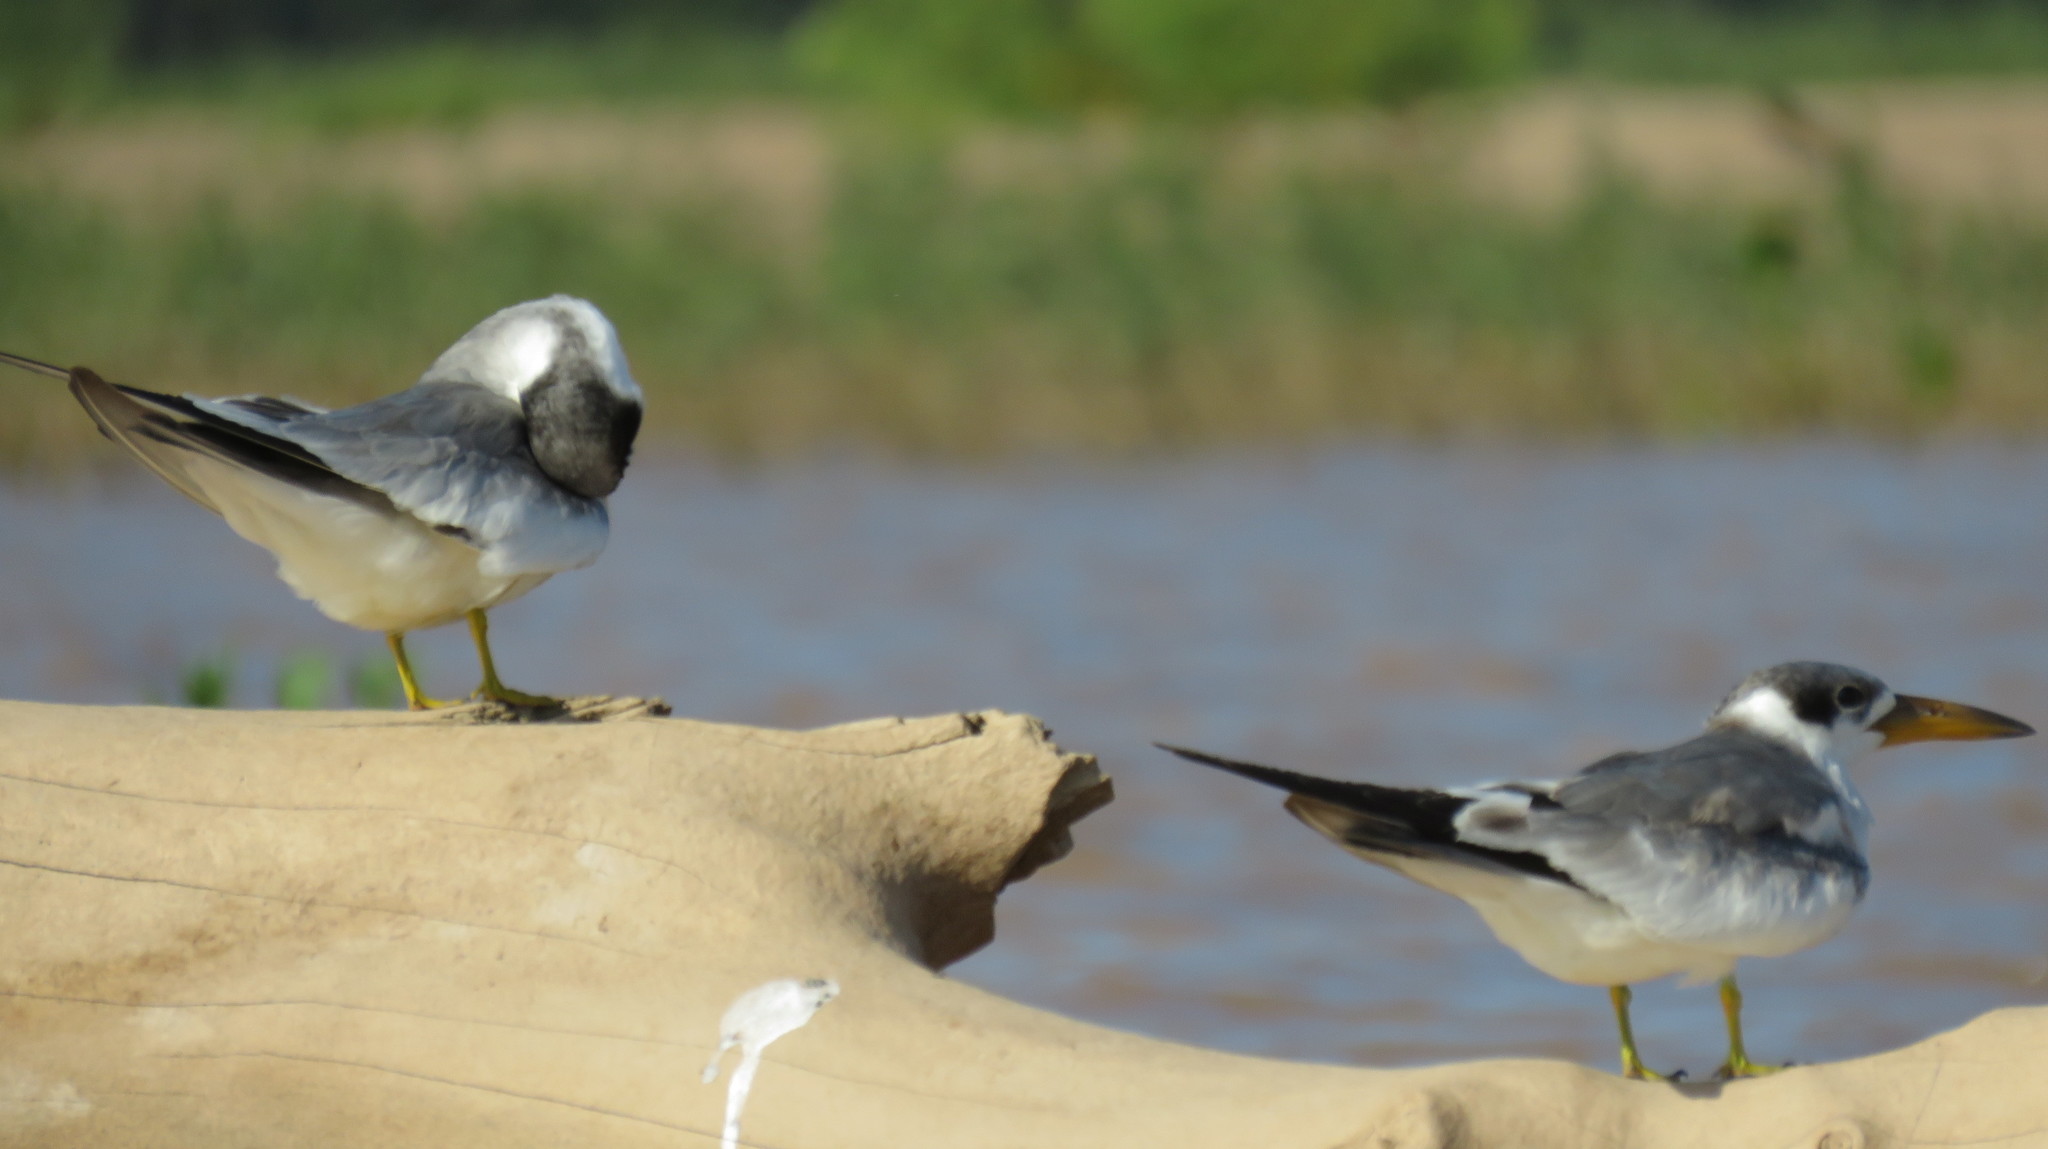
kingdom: Animalia
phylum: Chordata
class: Aves
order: Charadriiformes
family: Laridae
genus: Phaetusa
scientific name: Phaetusa simplex
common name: Large-billed tern
